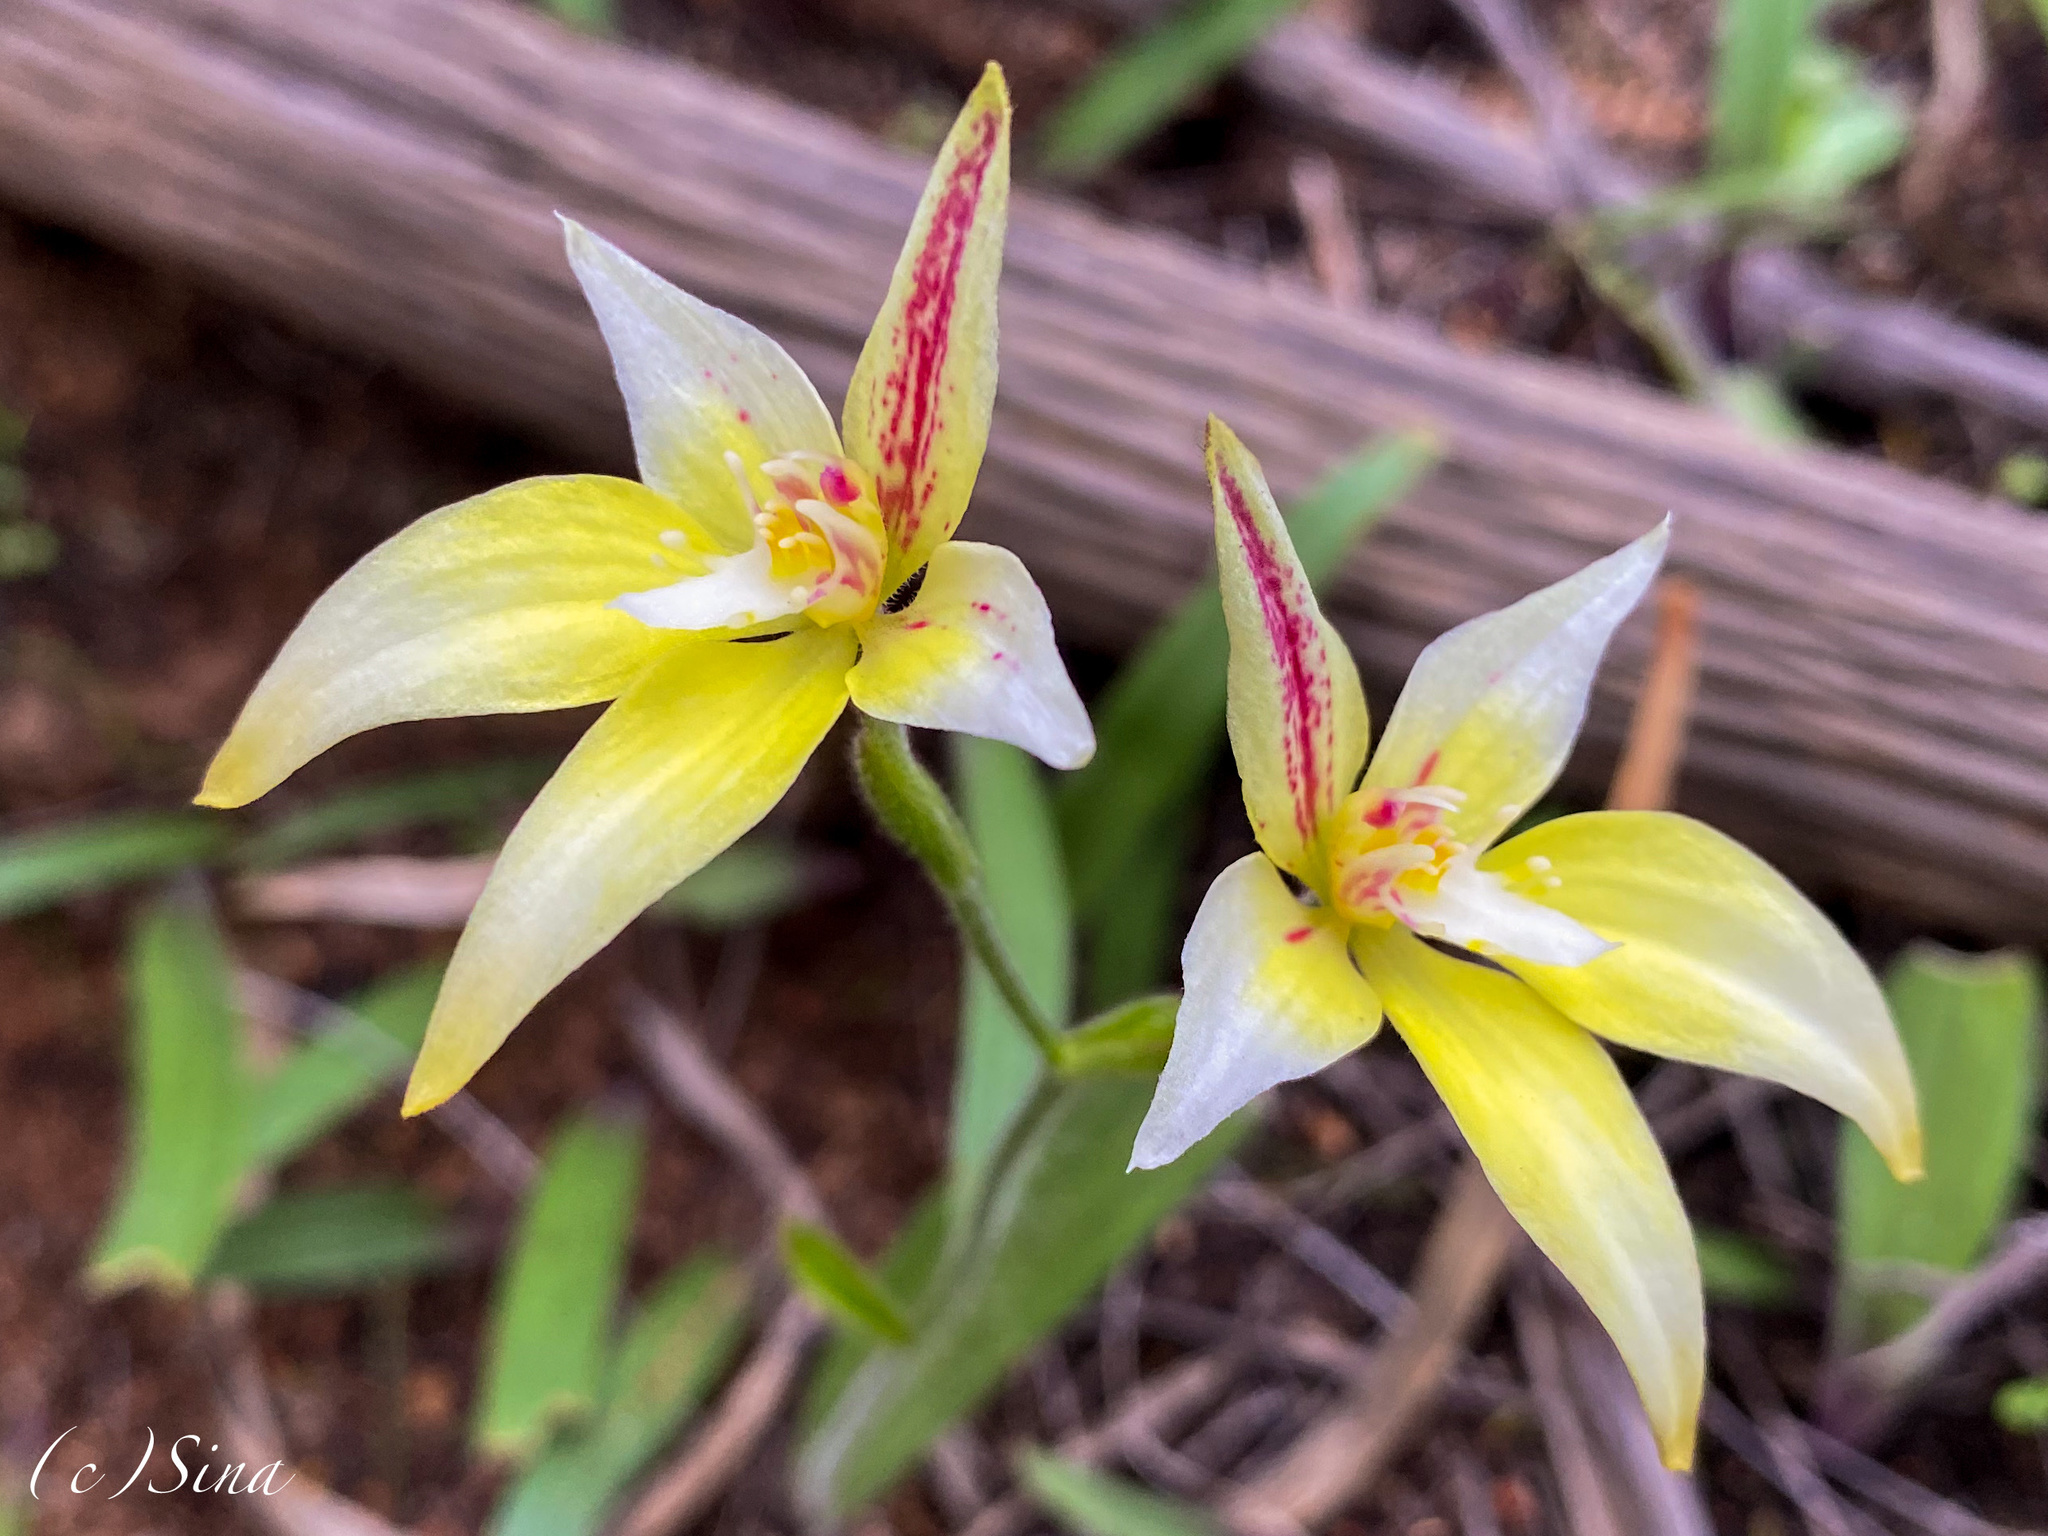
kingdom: Plantae
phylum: Tracheophyta
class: Liliopsida
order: Asparagales
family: Orchidaceae
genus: Caladenia
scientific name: Caladenia flava
